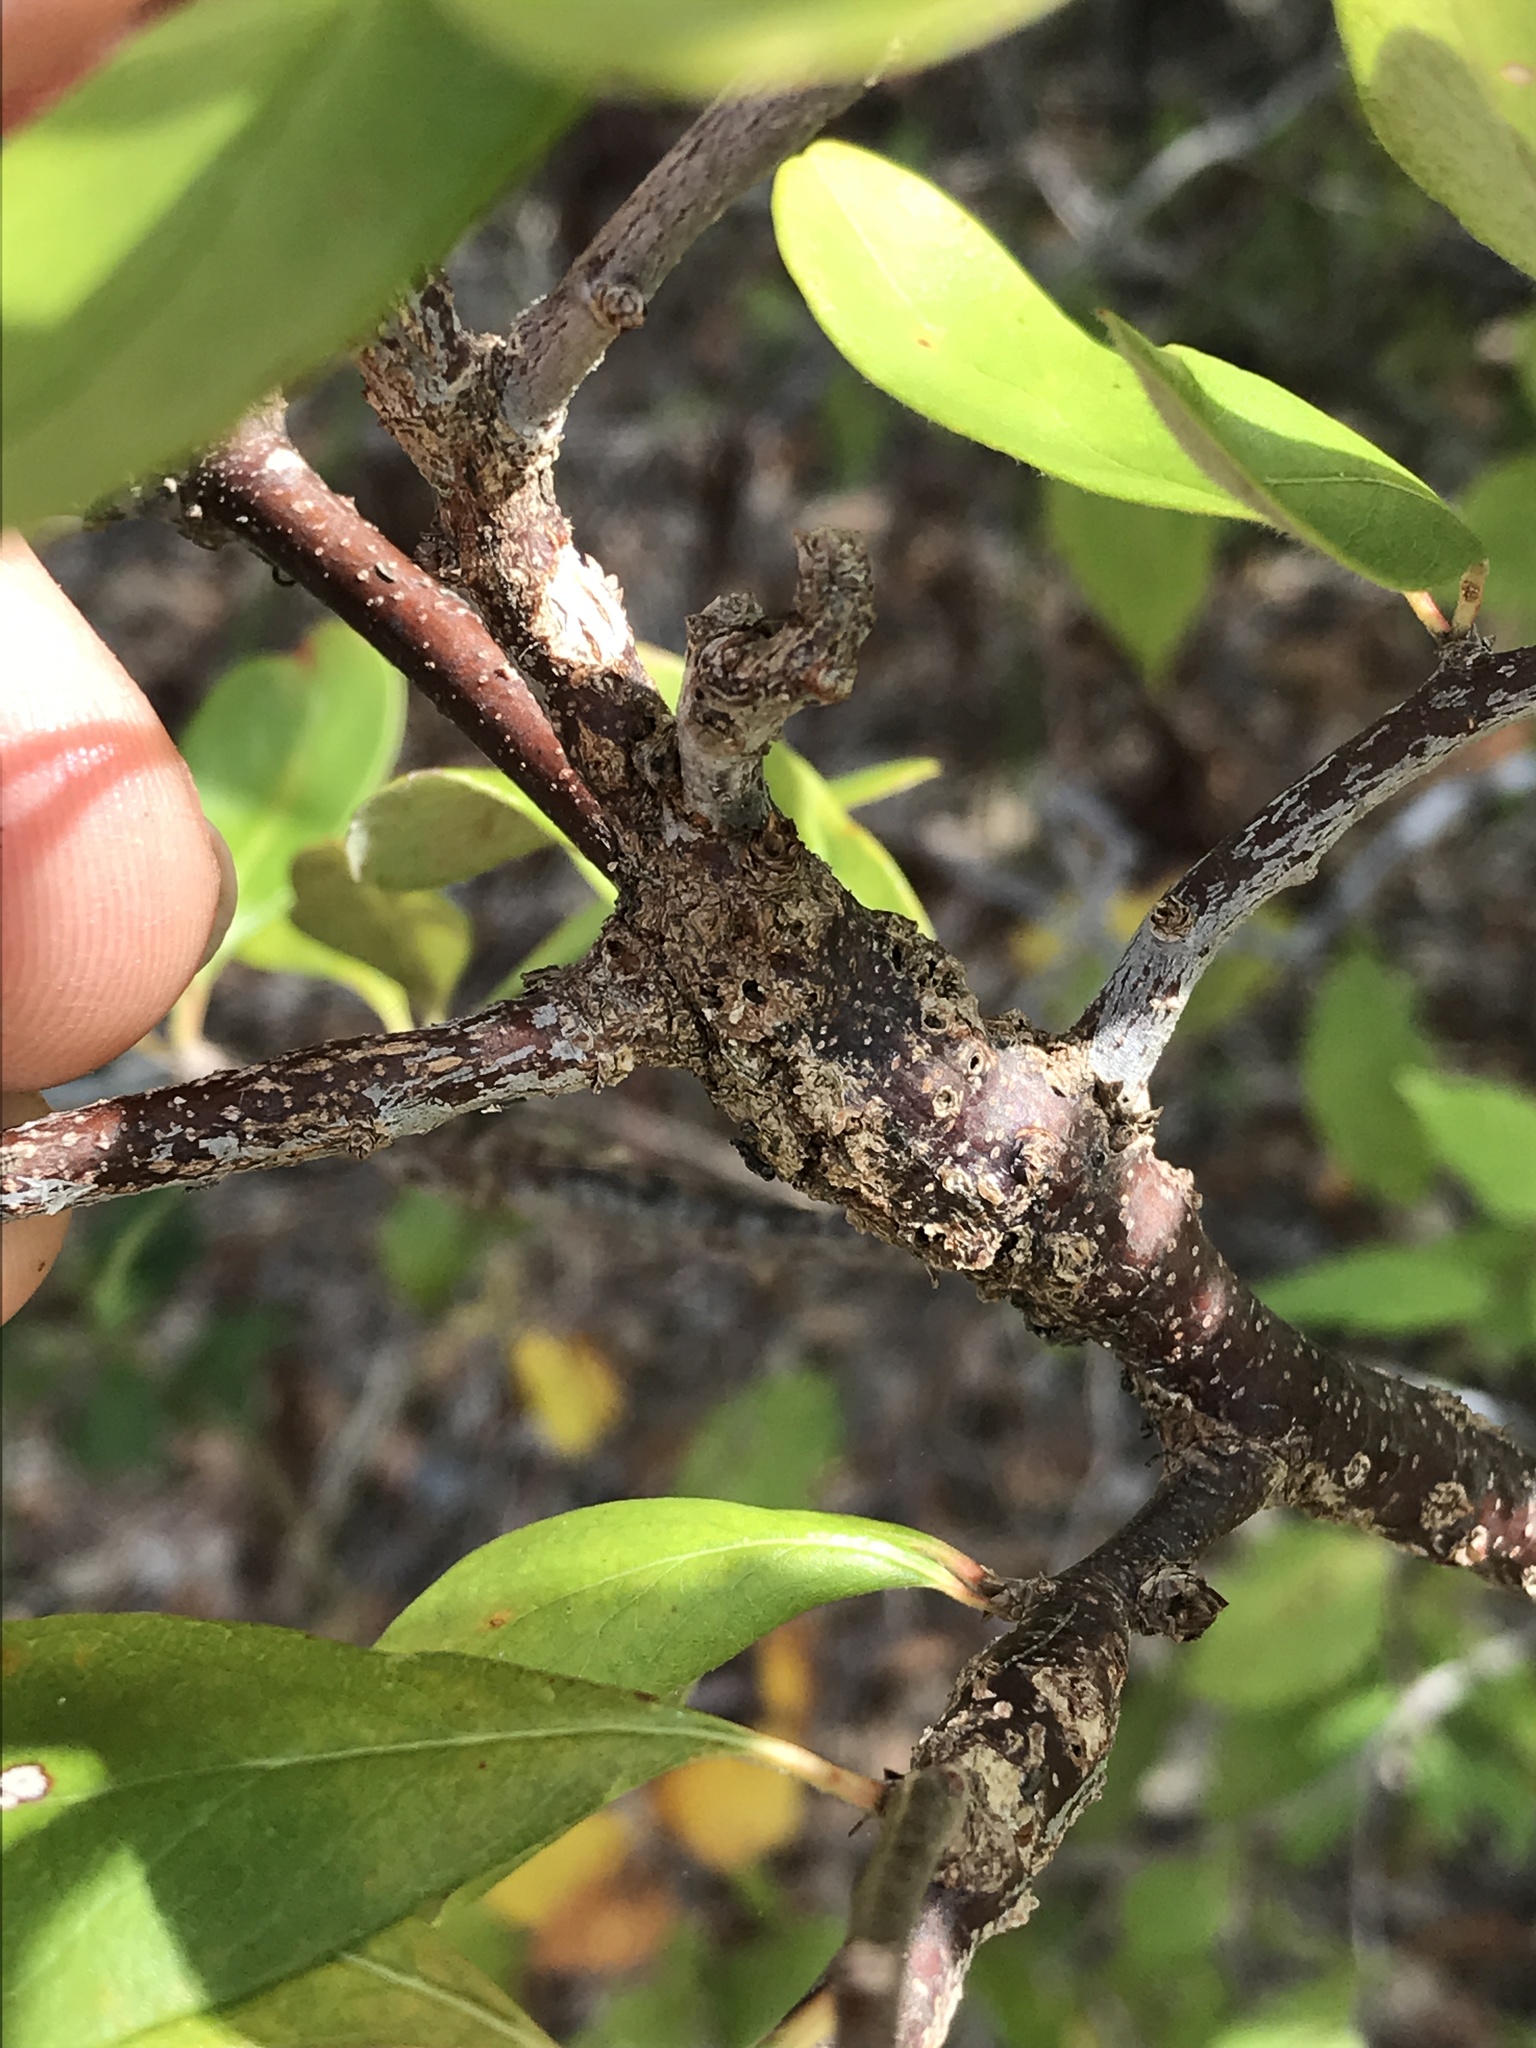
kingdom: Animalia
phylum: Arthropoda
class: Insecta
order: Diptera
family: Cecidomyiidae
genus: Bruggmanniella
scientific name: Bruggmanniella bumeliae
